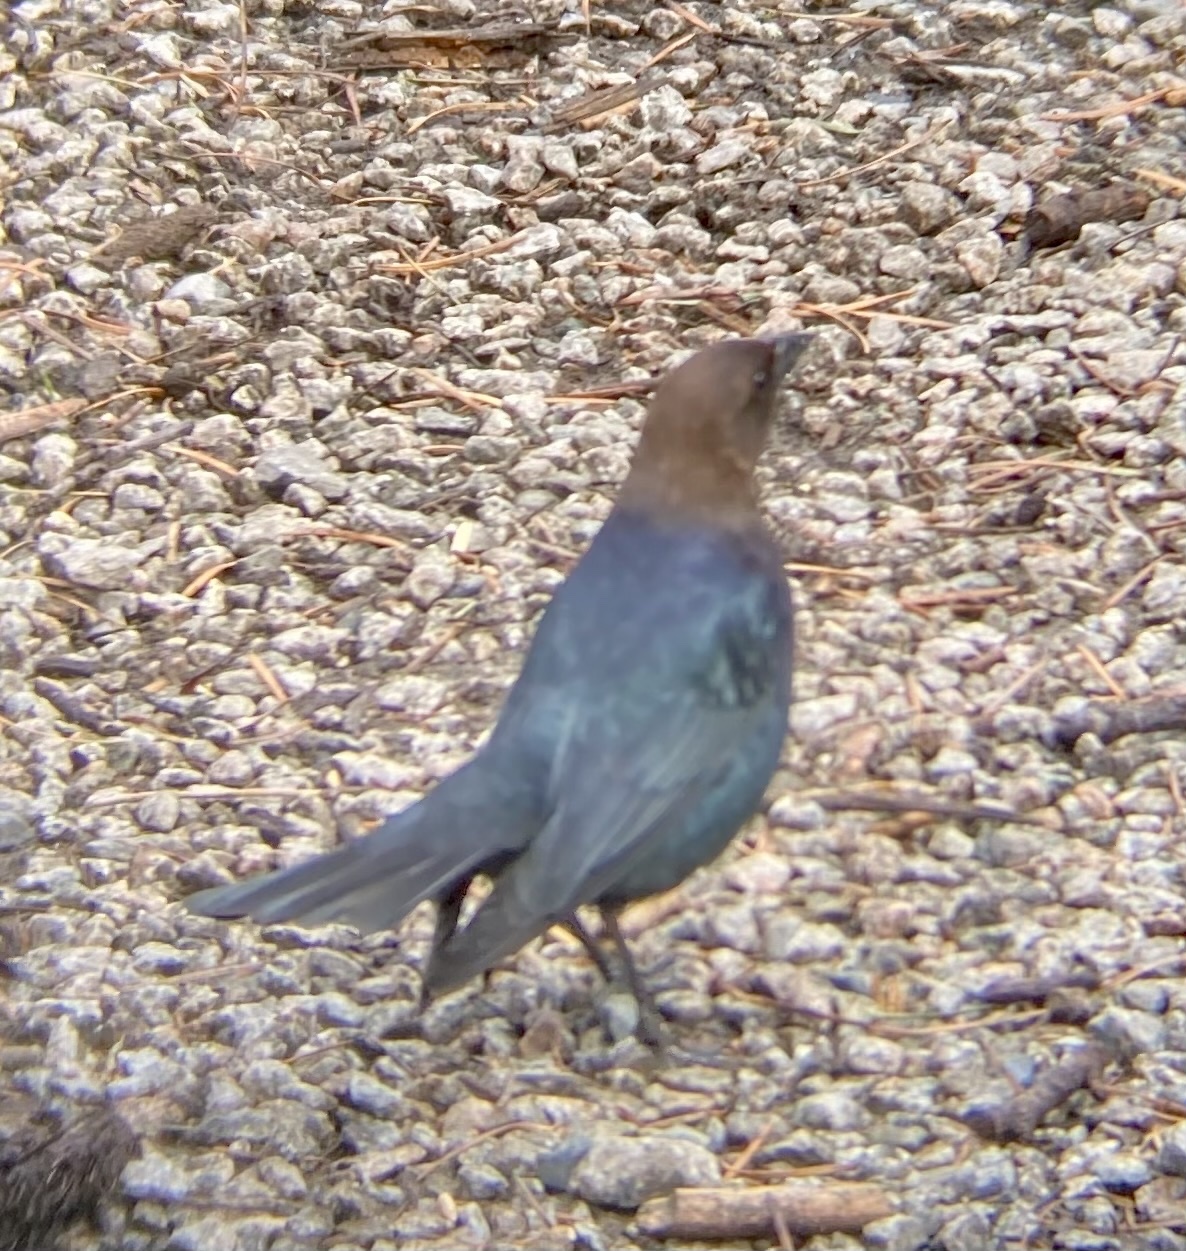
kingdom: Animalia
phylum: Chordata
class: Aves
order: Passeriformes
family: Icteridae
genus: Molothrus
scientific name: Molothrus ater
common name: Brown-headed cowbird
